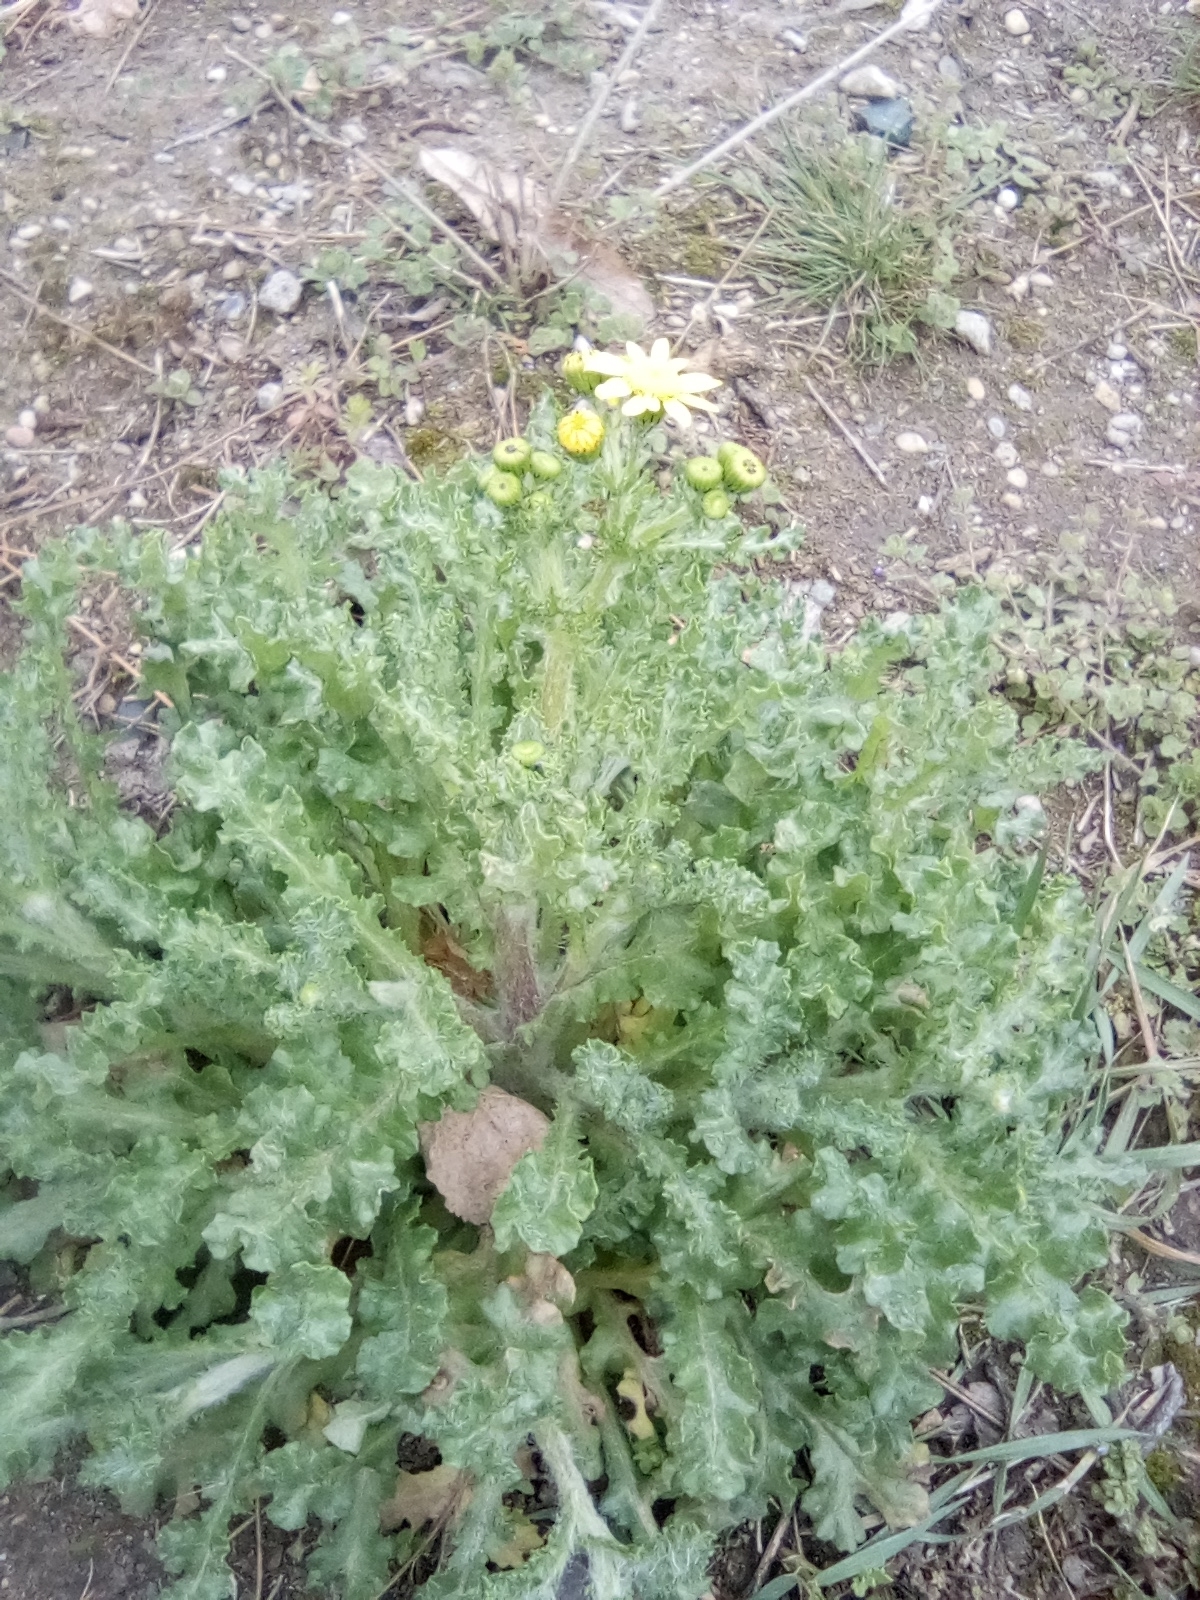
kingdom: Plantae
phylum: Tracheophyta
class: Magnoliopsida
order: Asterales
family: Asteraceae
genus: Senecio
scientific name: Senecio vernalis
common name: Eastern groundsel
